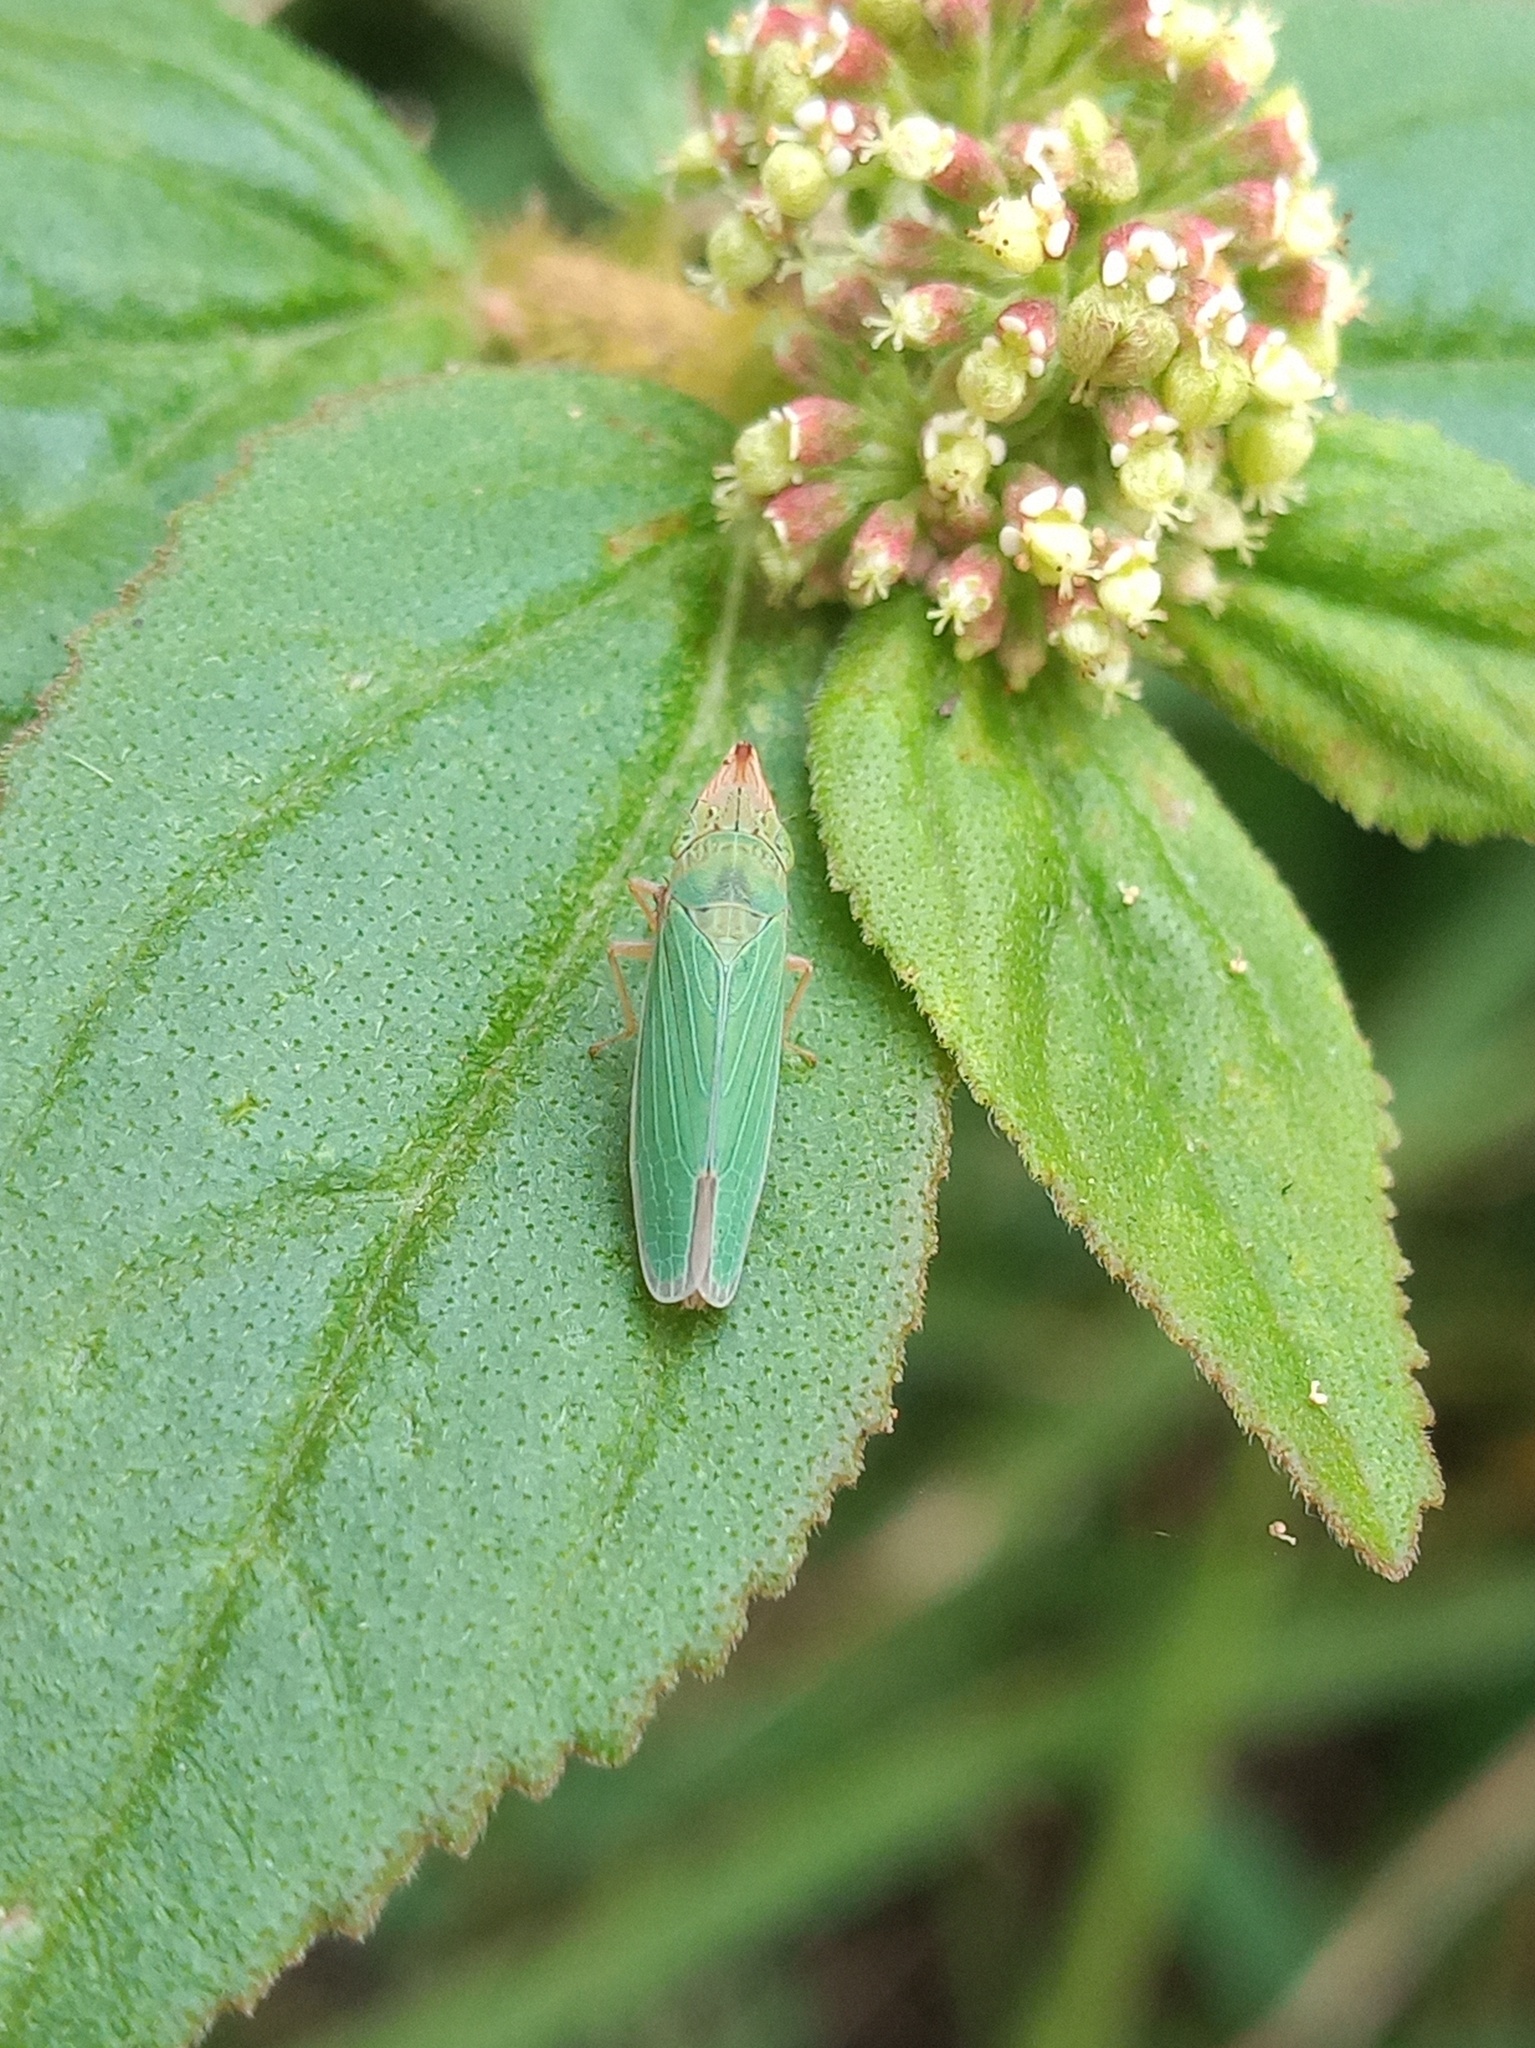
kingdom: Animalia
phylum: Arthropoda
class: Insecta
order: Hemiptera
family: Cicadellidae
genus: Draeculacephala
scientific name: Draeculacephala soluta
